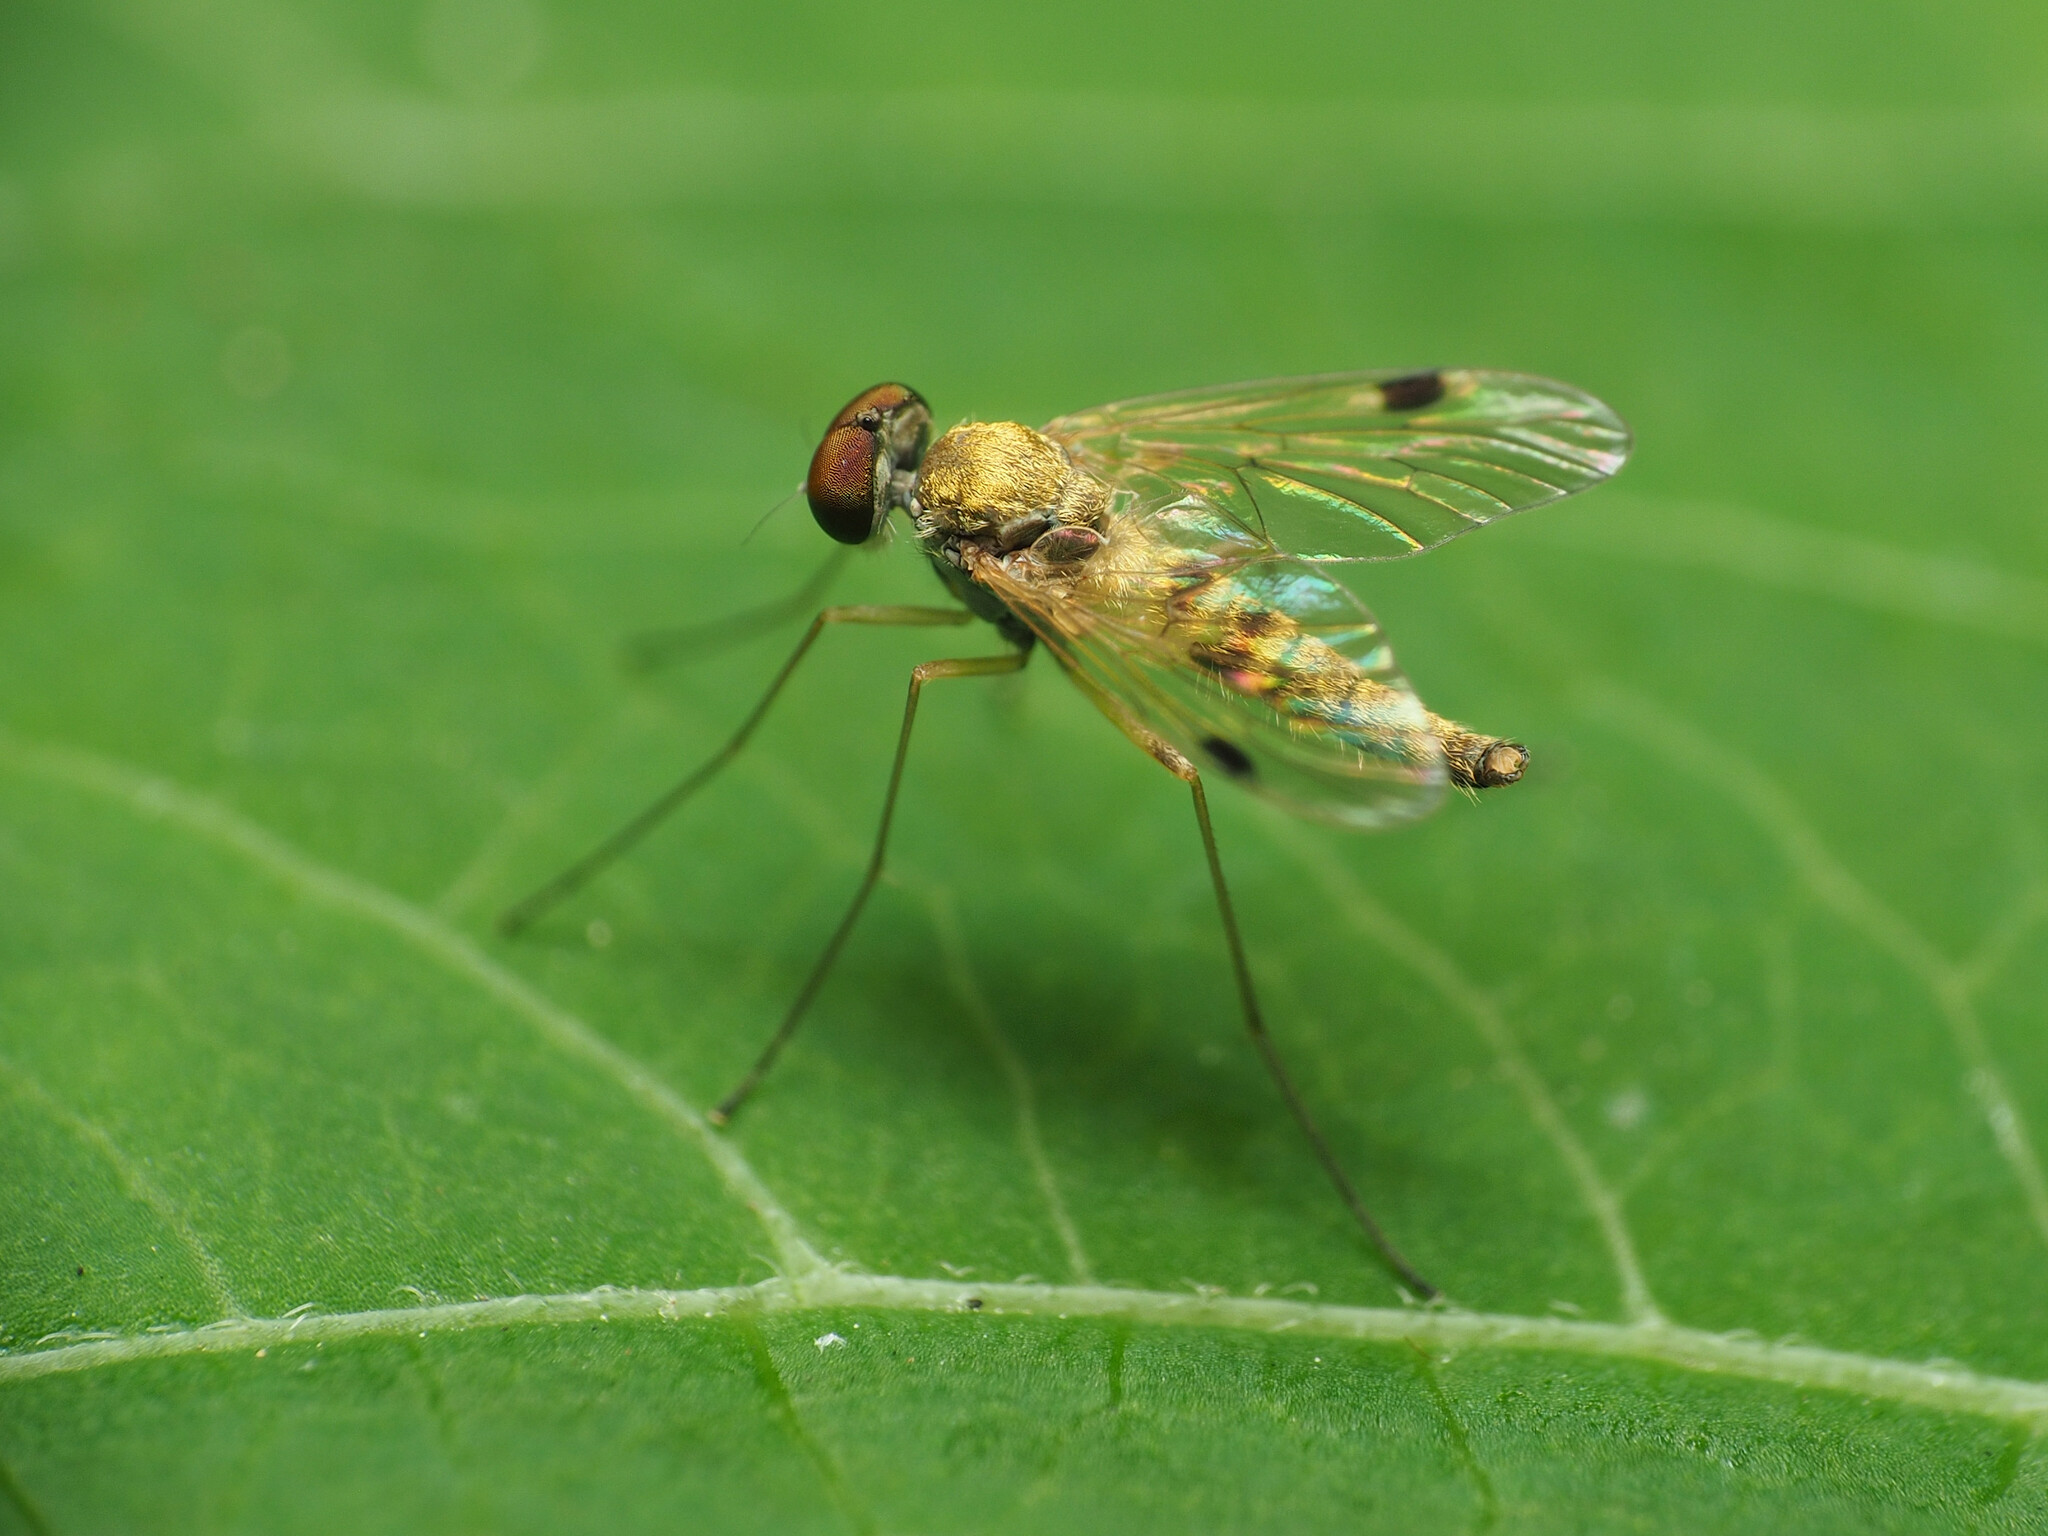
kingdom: Animalia
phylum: Arthropoda
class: Insecta
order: Diptera
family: Rhagionidae
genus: Chrysopilus
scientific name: Chrysopilus modestus
